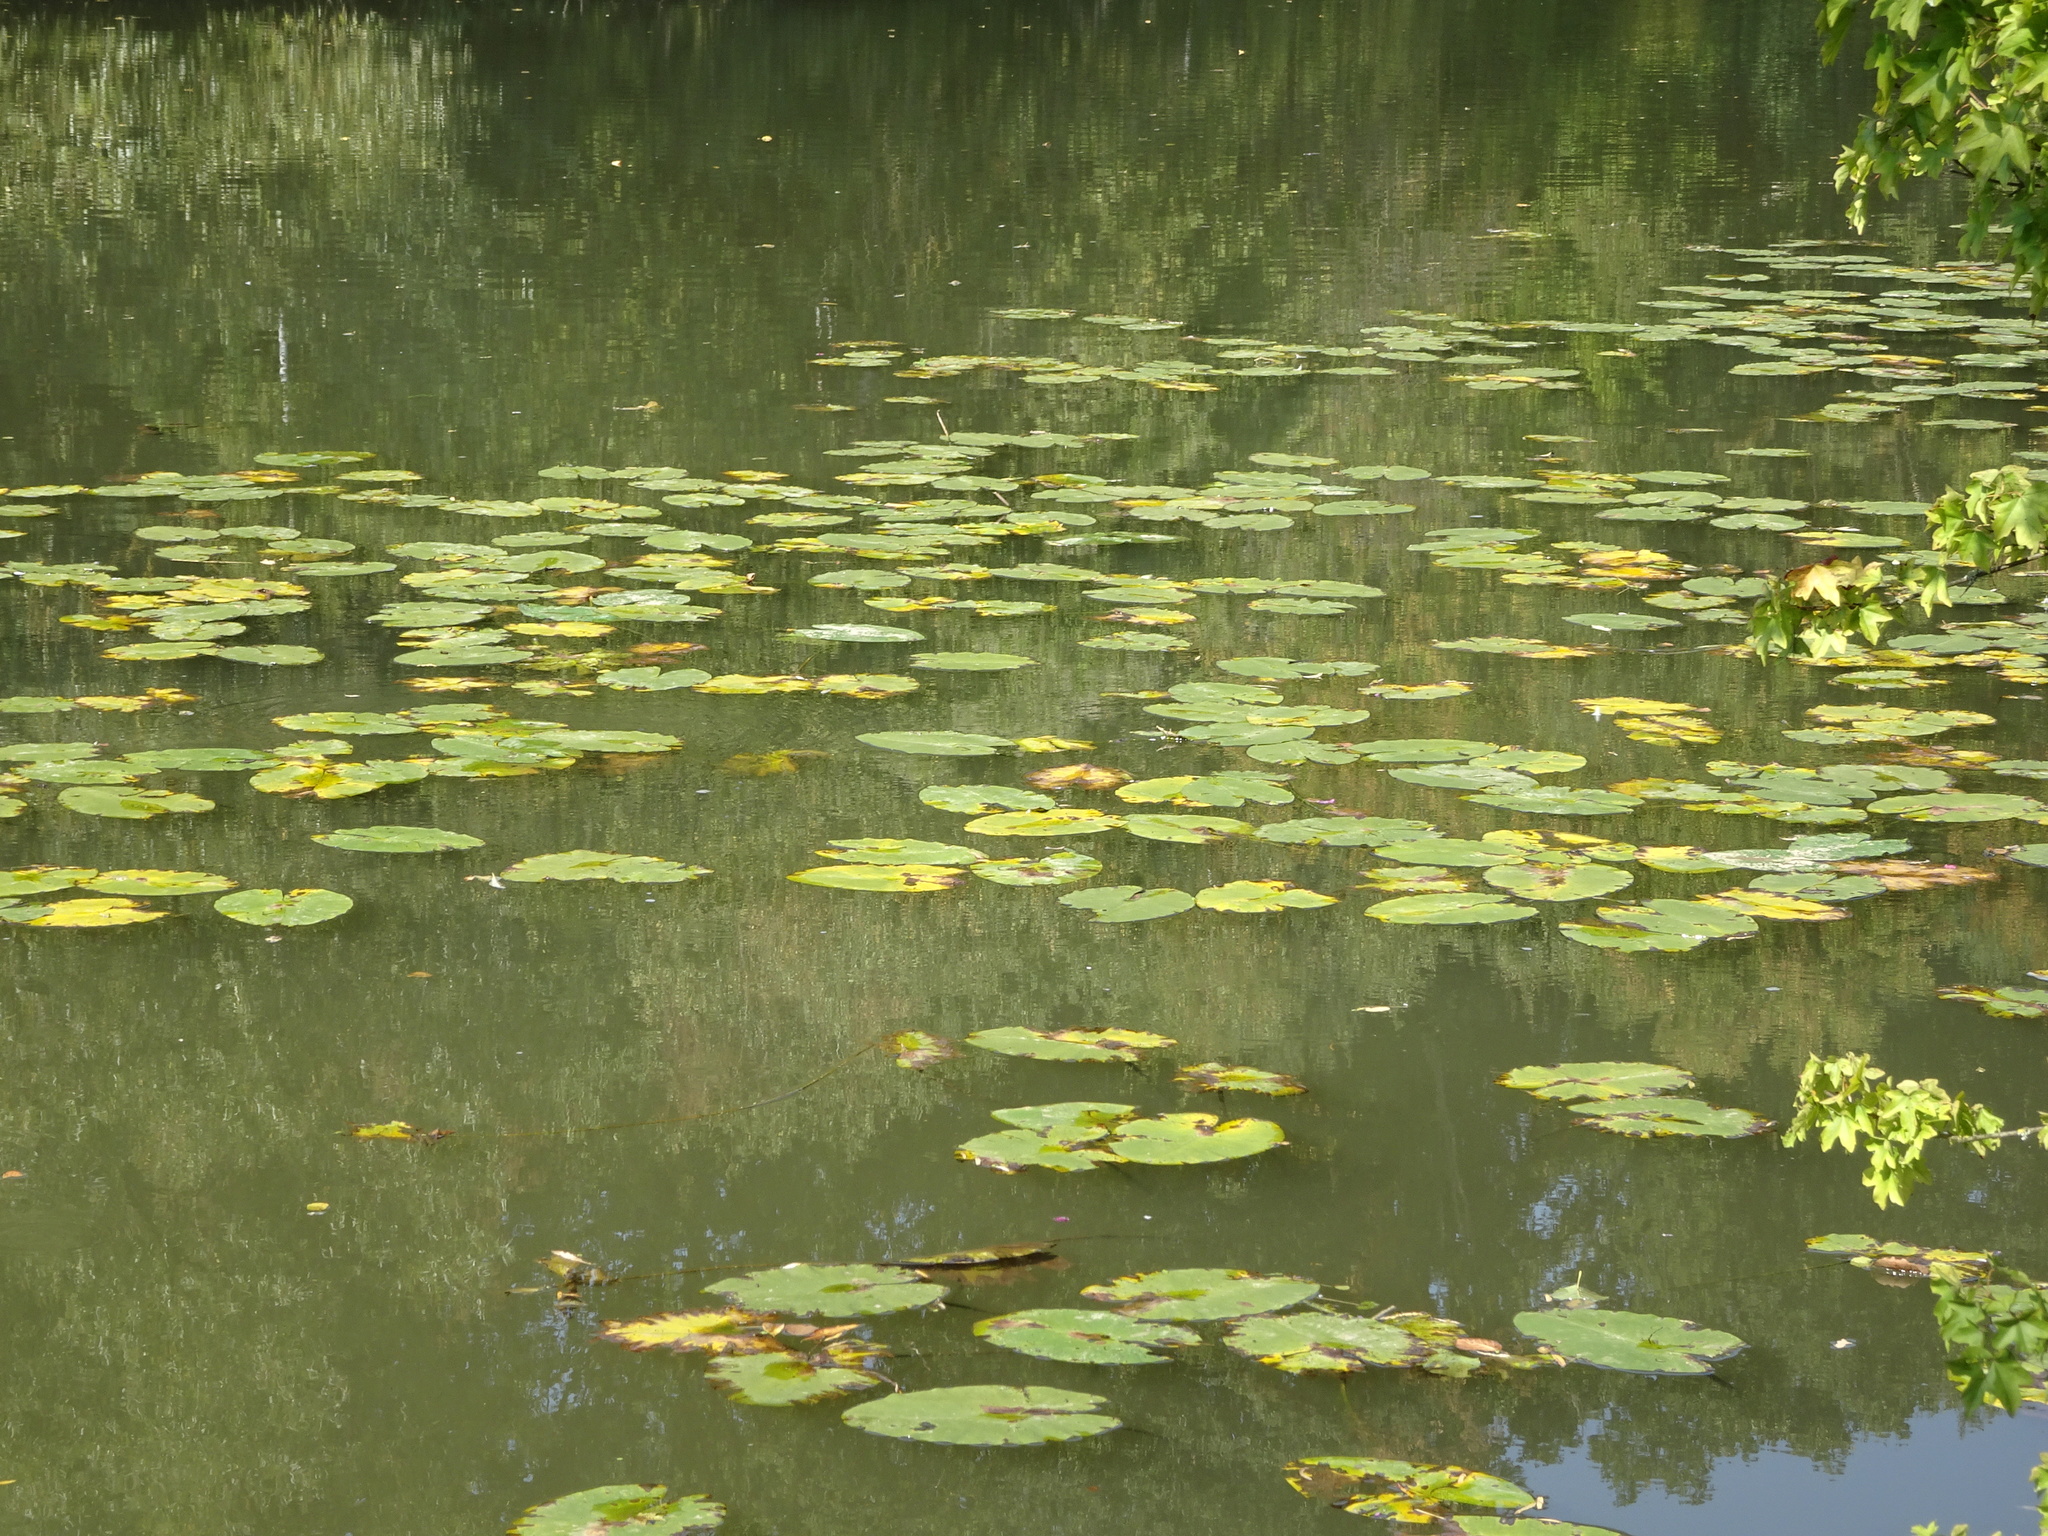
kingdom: Plantae
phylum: Tracheophyta
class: Magnoliopsida
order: Nymphaeales
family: Nymphaeaceae
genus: Nuphar
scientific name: Nuphar lutea
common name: Yellow water-lily
